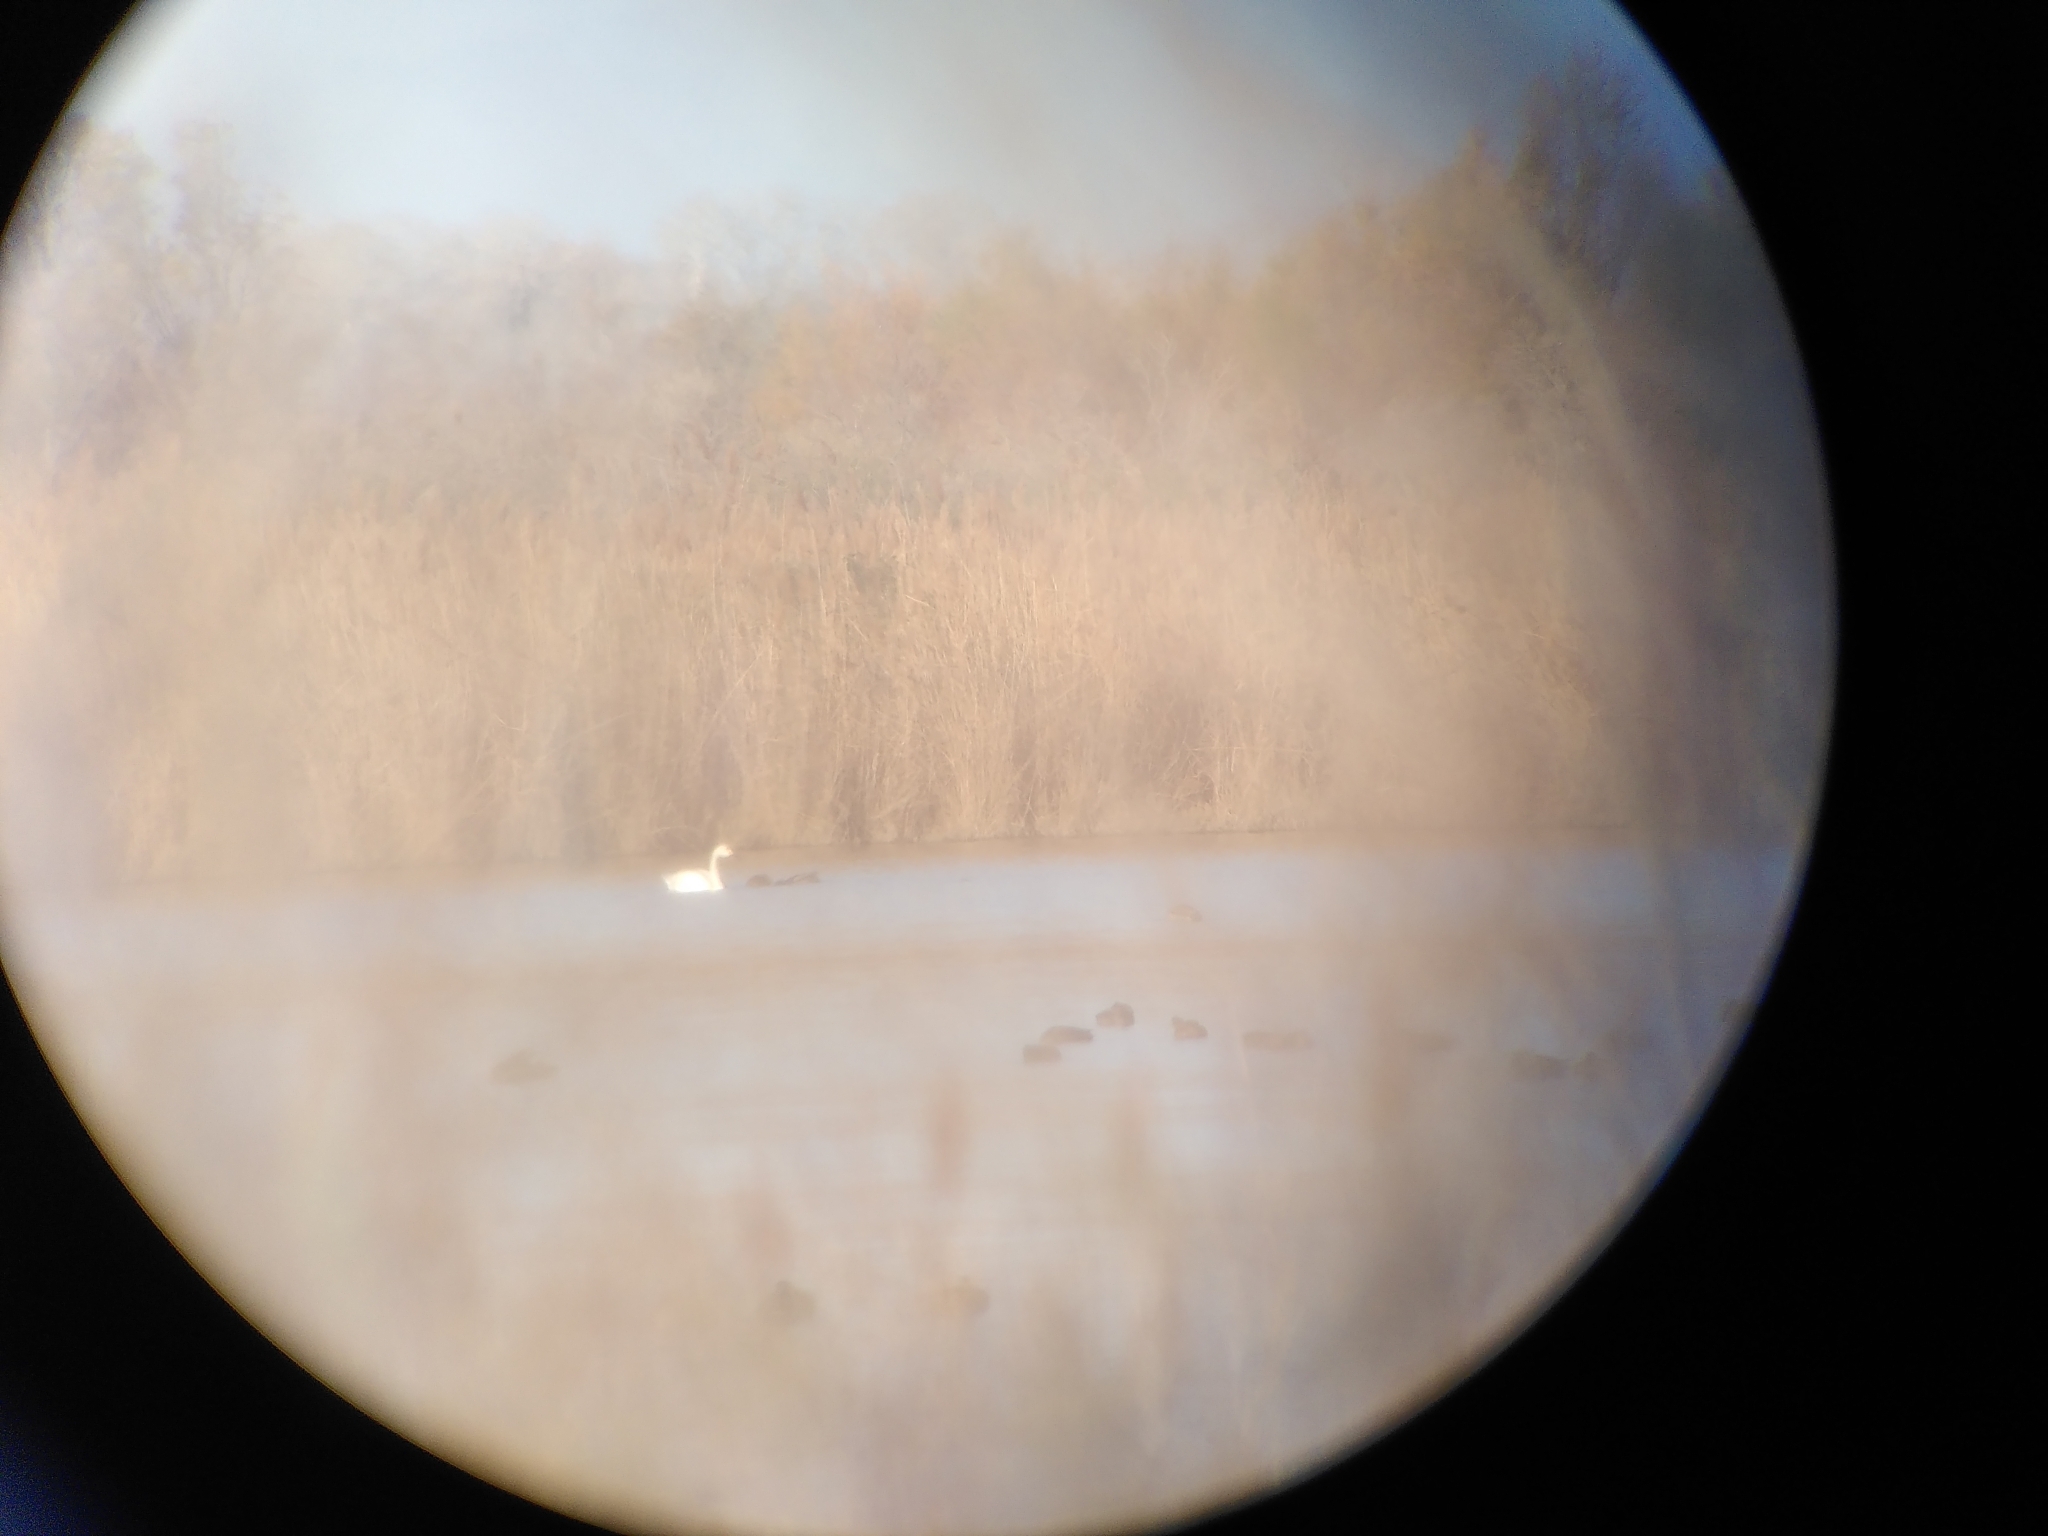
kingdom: Animalia
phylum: Chordata
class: Aves
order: Anseriformes
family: Anatidae
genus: Cygnus
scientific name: Cygnus columbianus
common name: Tundra swan
